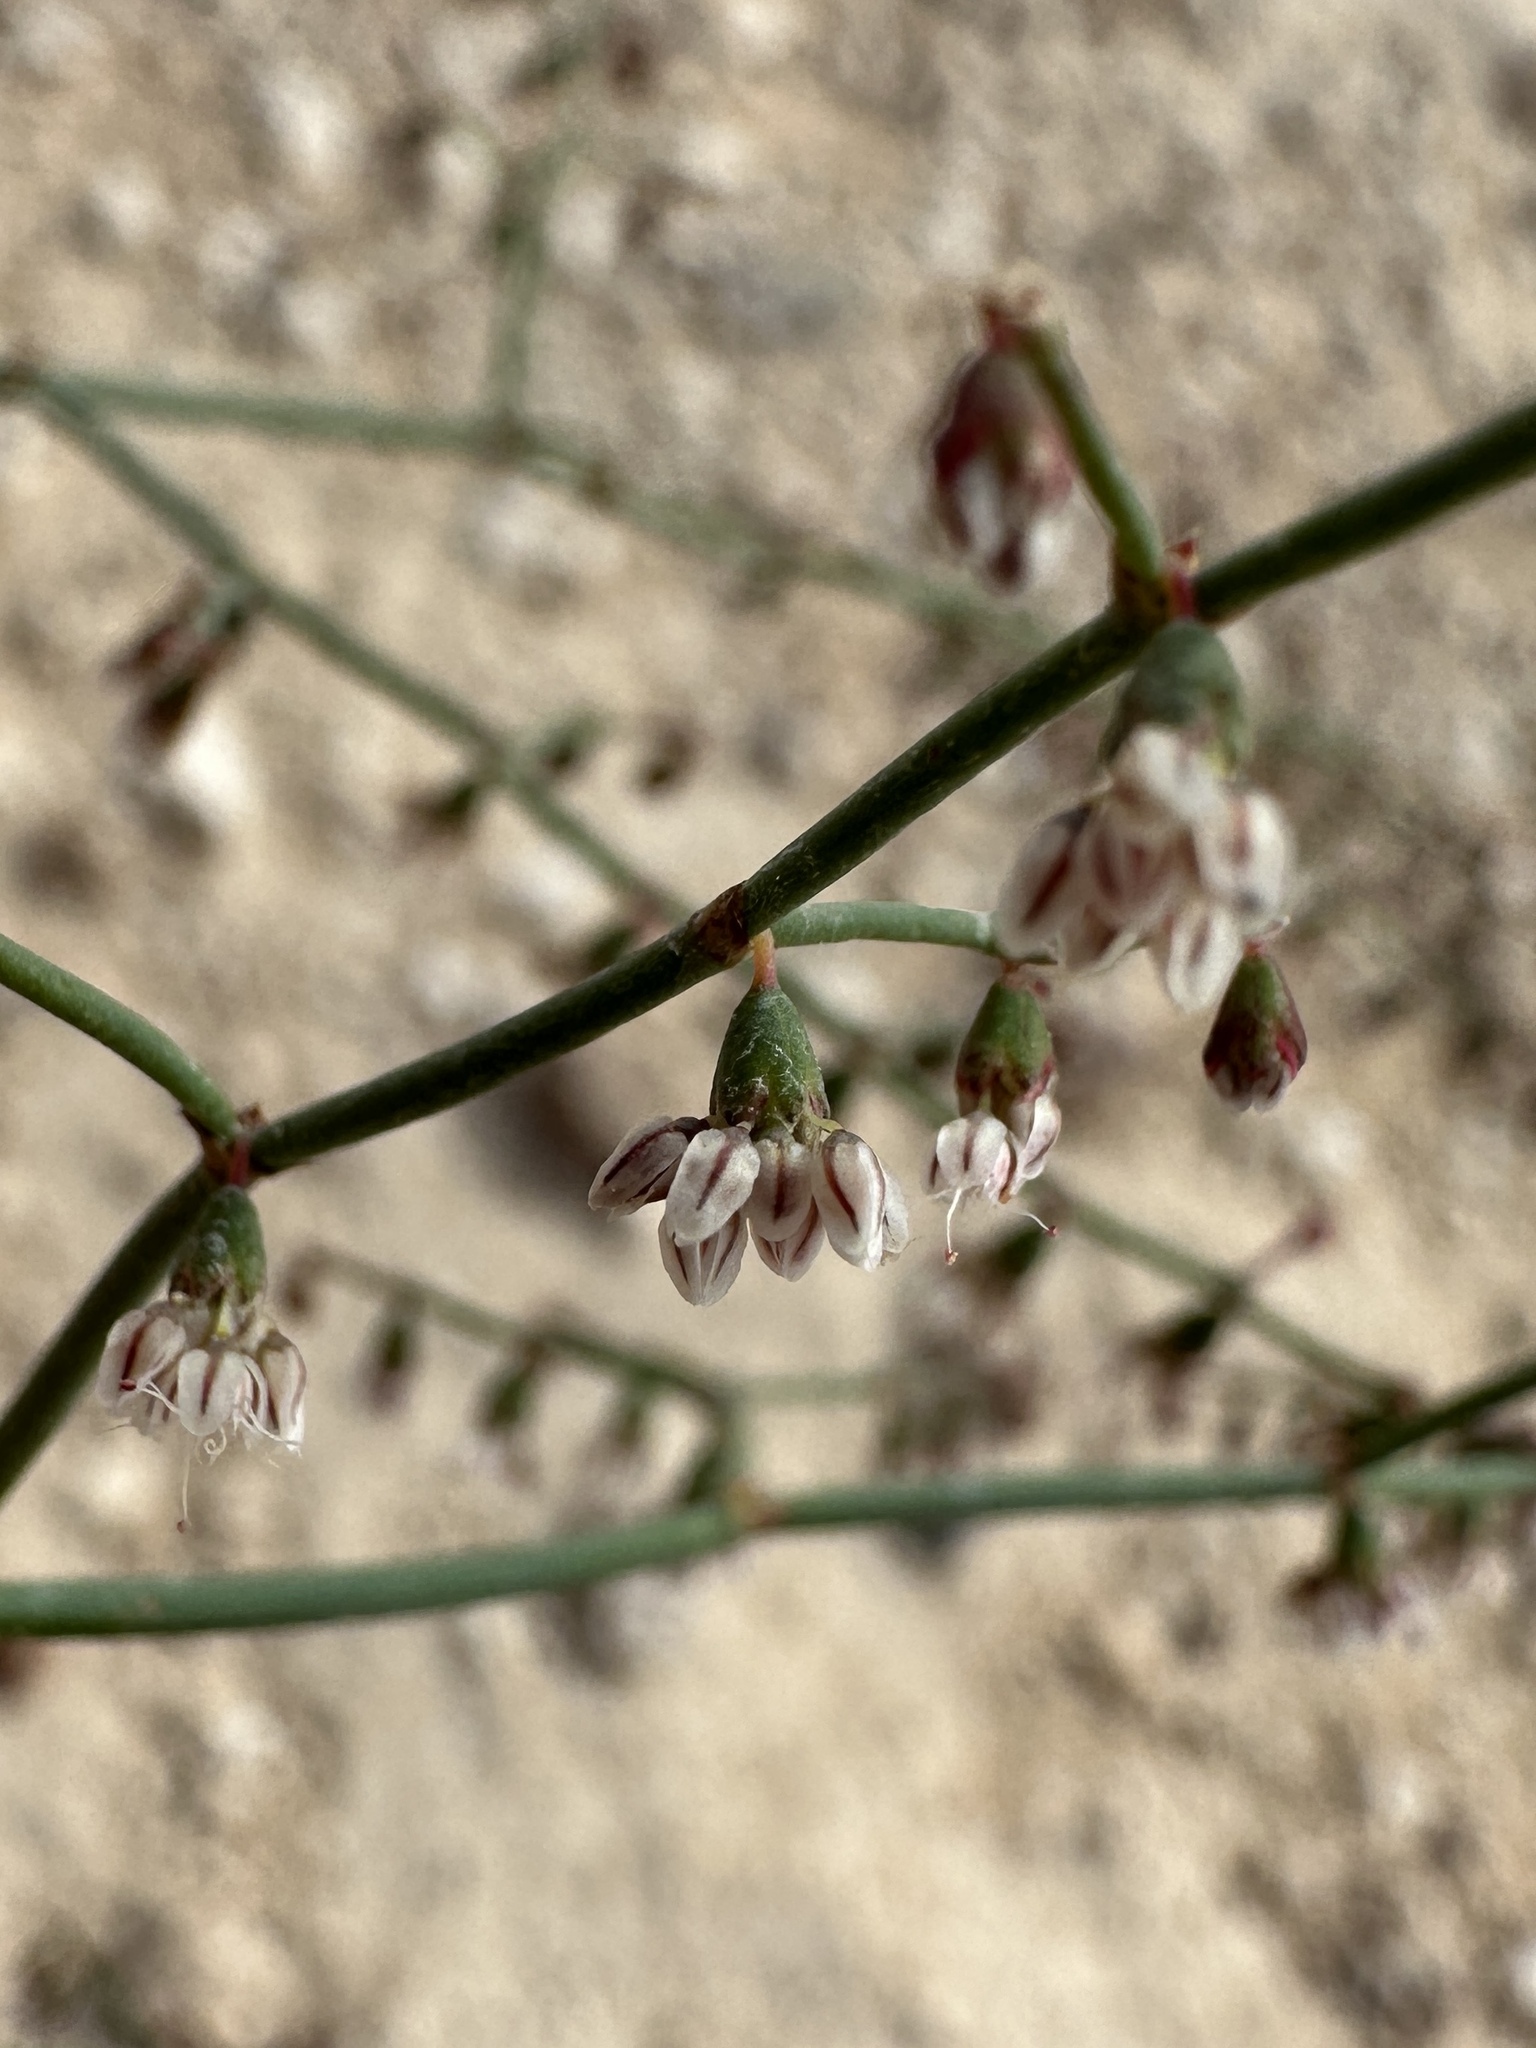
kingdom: Plantae
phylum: Tracheophyta
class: Magnoliopsida
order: Caryophyllales
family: Polygonaceae
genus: Eriogonum
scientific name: Eriogonum deflexum
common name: Skeleton-weed
